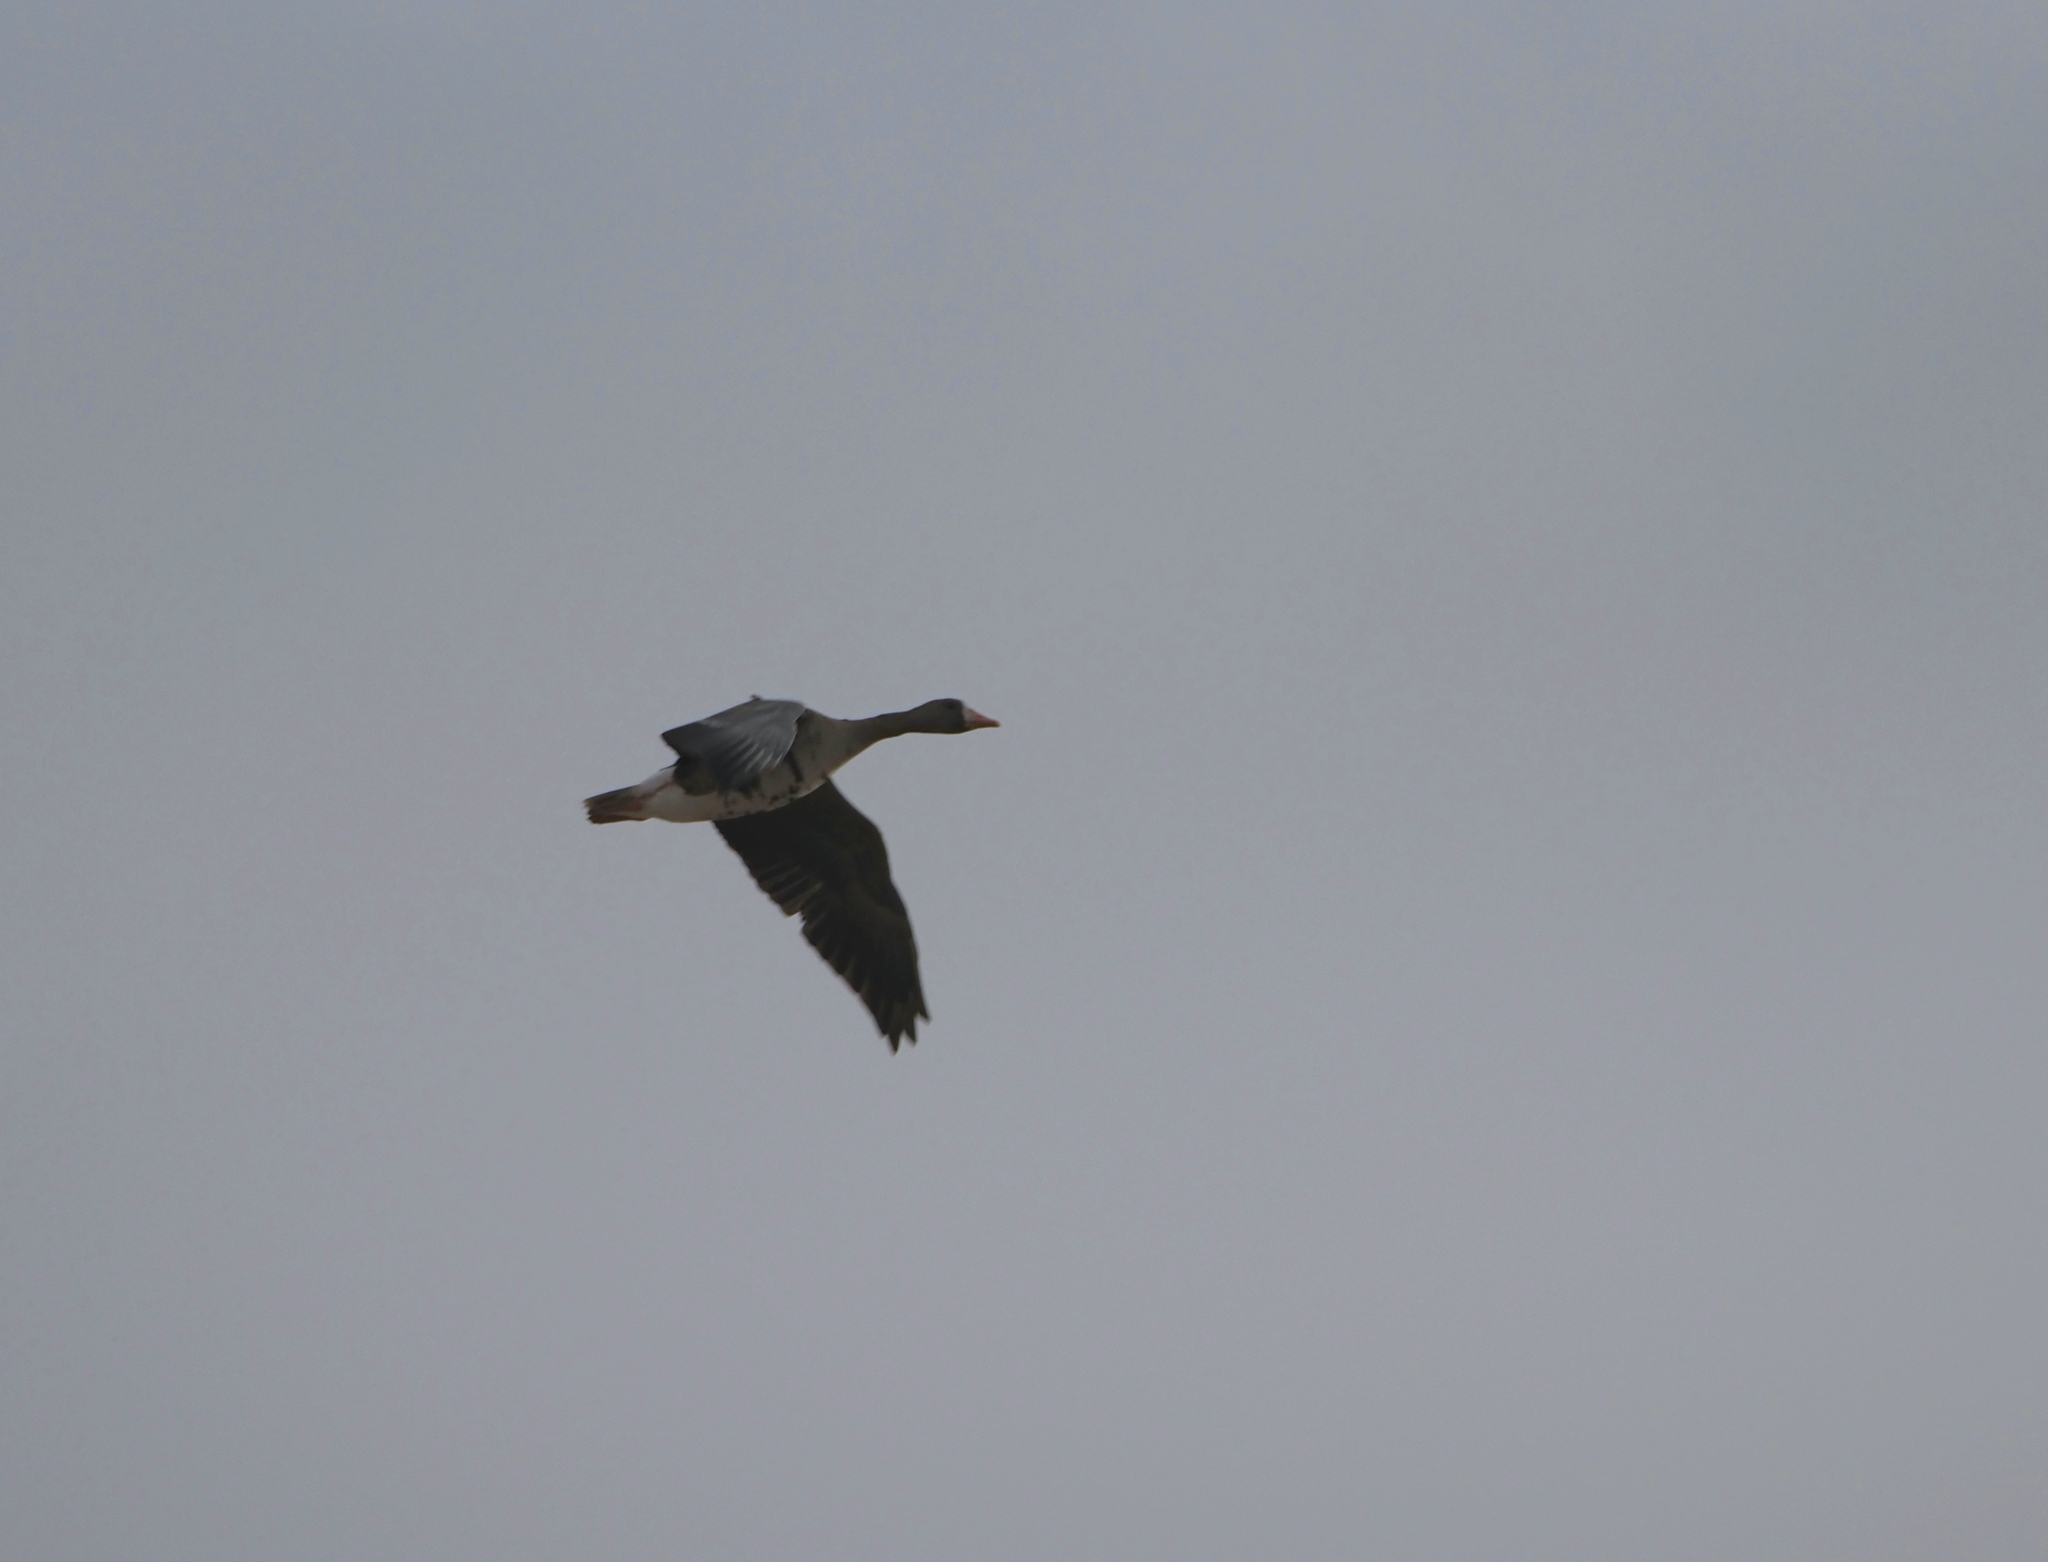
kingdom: Animalia
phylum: Chordata
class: Aves
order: Anseriformes
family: Anatidae
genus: Anser
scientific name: Anser albifrons
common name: Greater white-fronted goose
